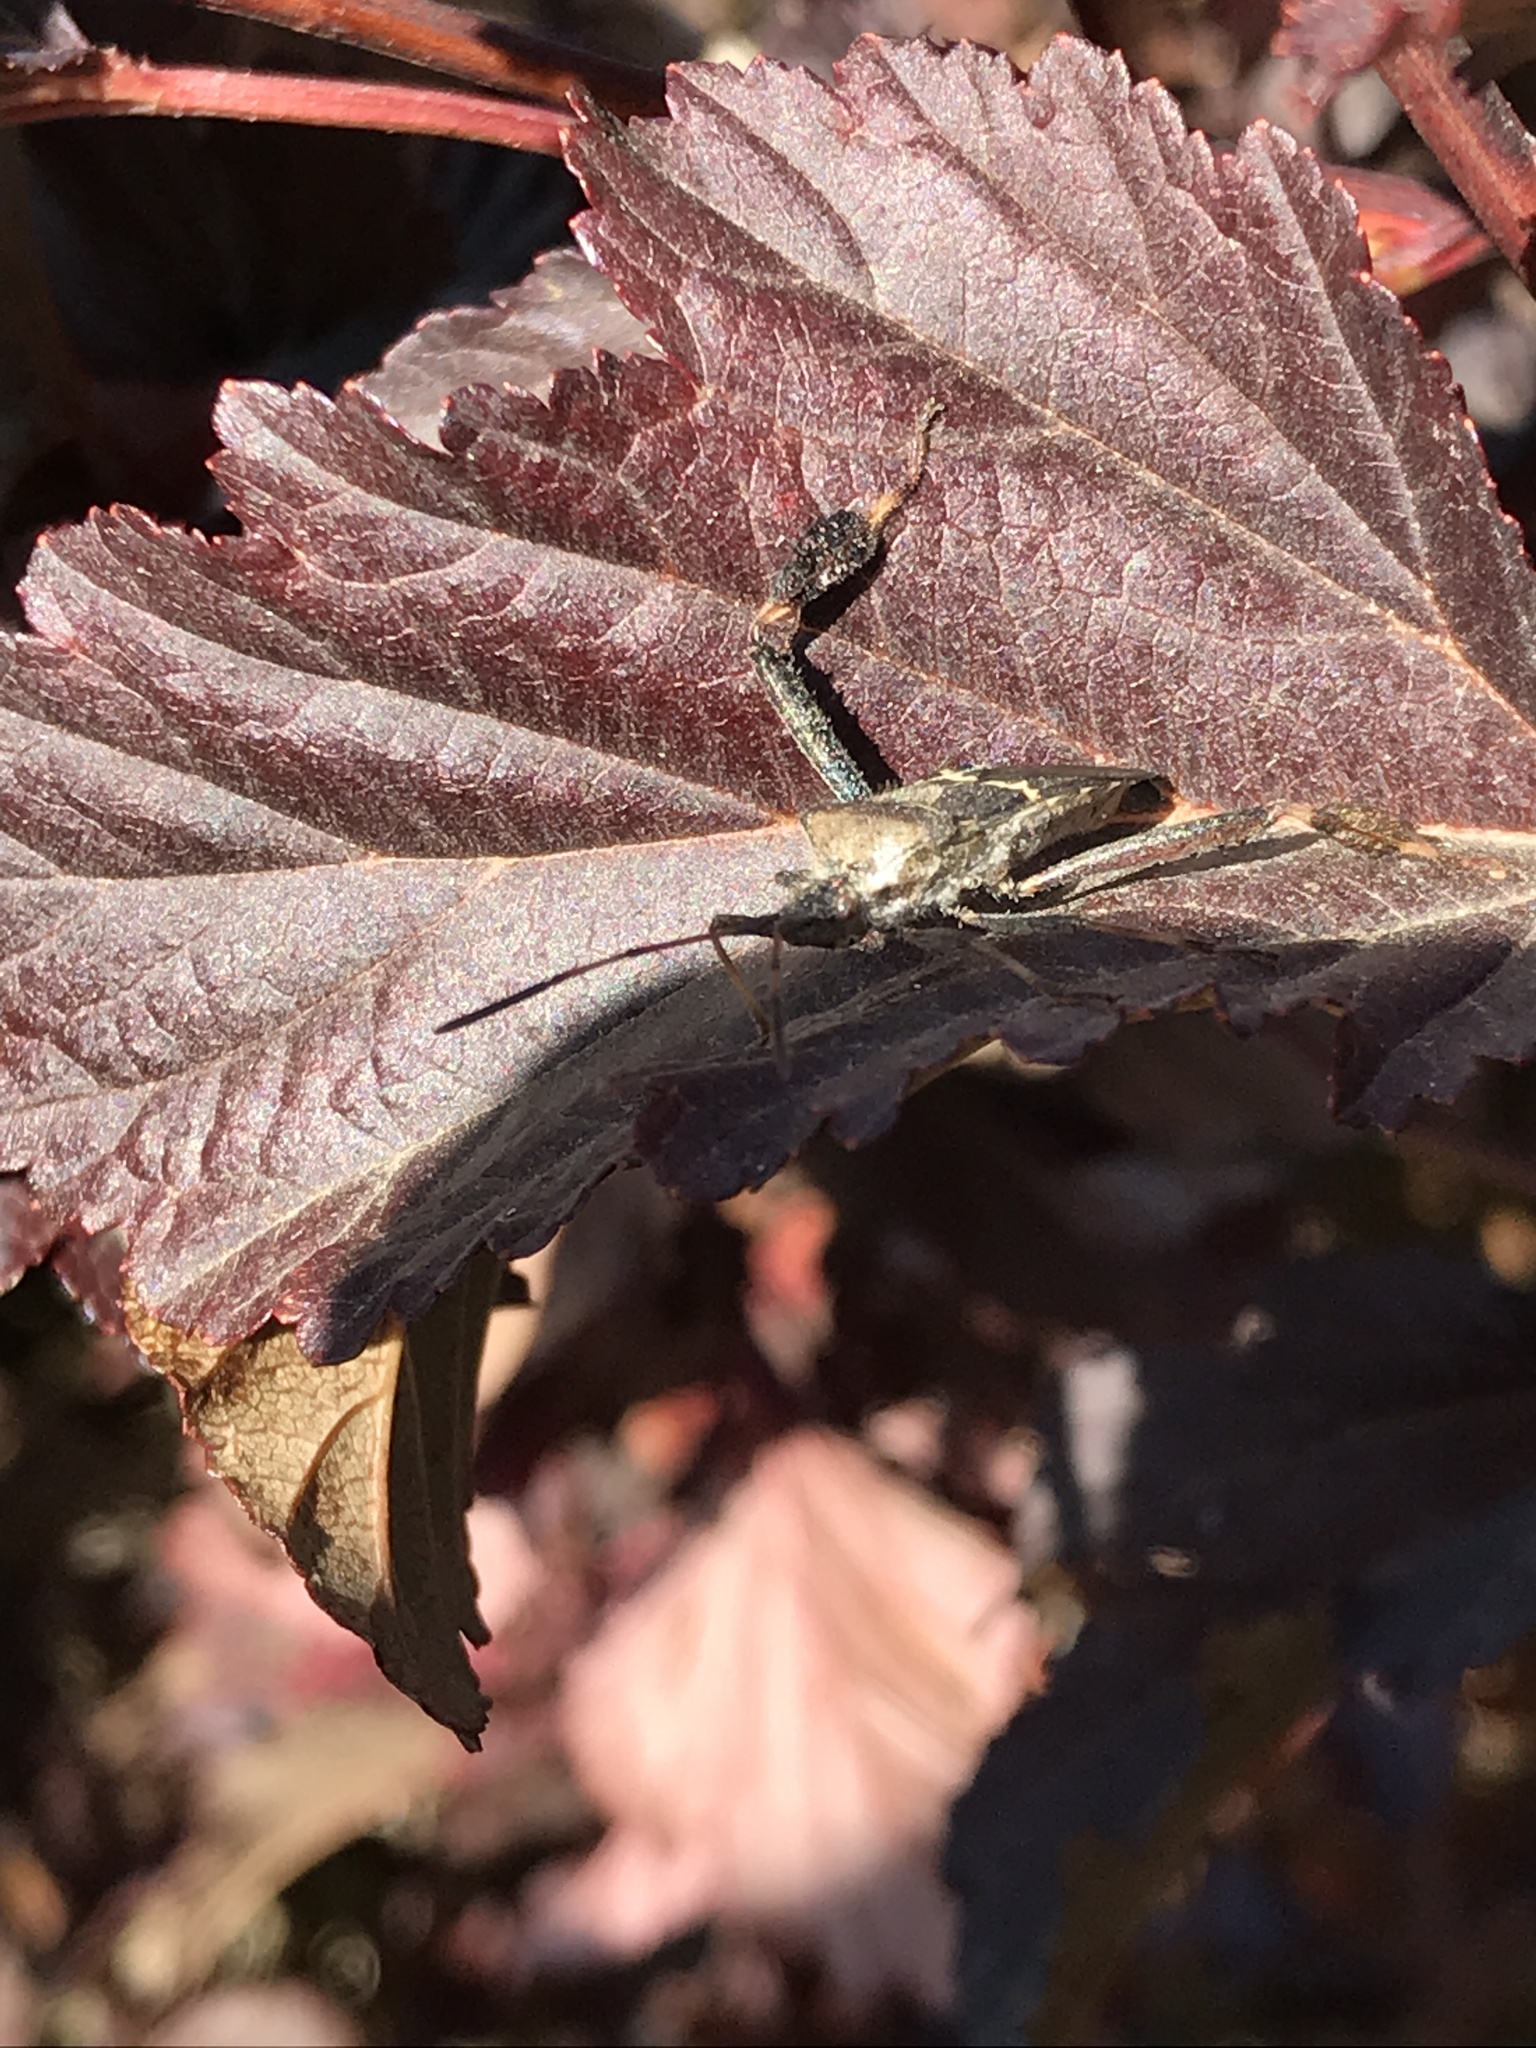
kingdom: Animalia
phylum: Arthropoda
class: Insecta
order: Hemiptera
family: Coreidae
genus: Leptoglossus
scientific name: Leptoglossus clypealis
